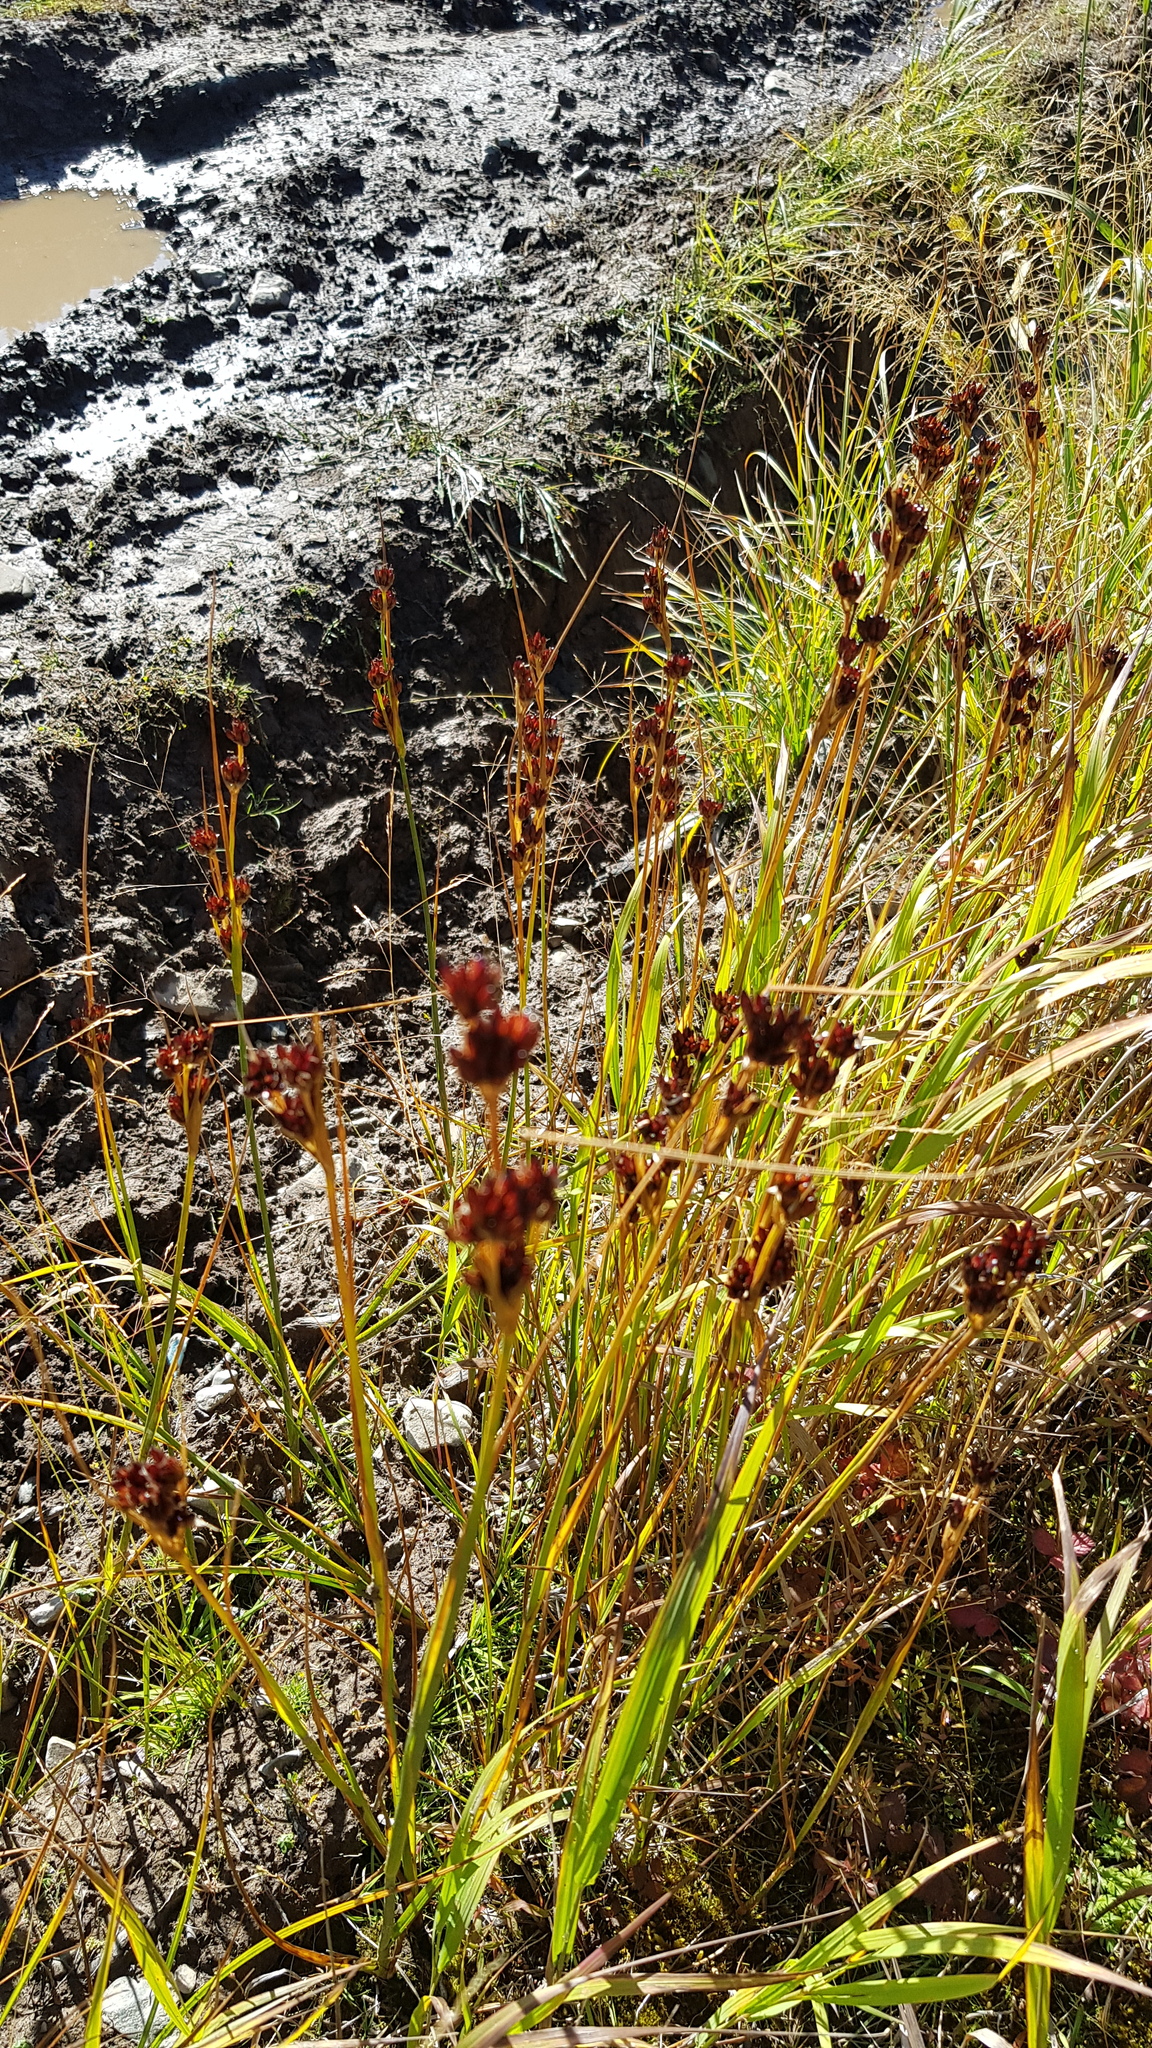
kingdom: Plantae
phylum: Tracheophyta
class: Liliopsida
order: Poales
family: Juncaceae
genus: Juncus
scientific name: Juncus compressus
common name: Round-fruited rush
